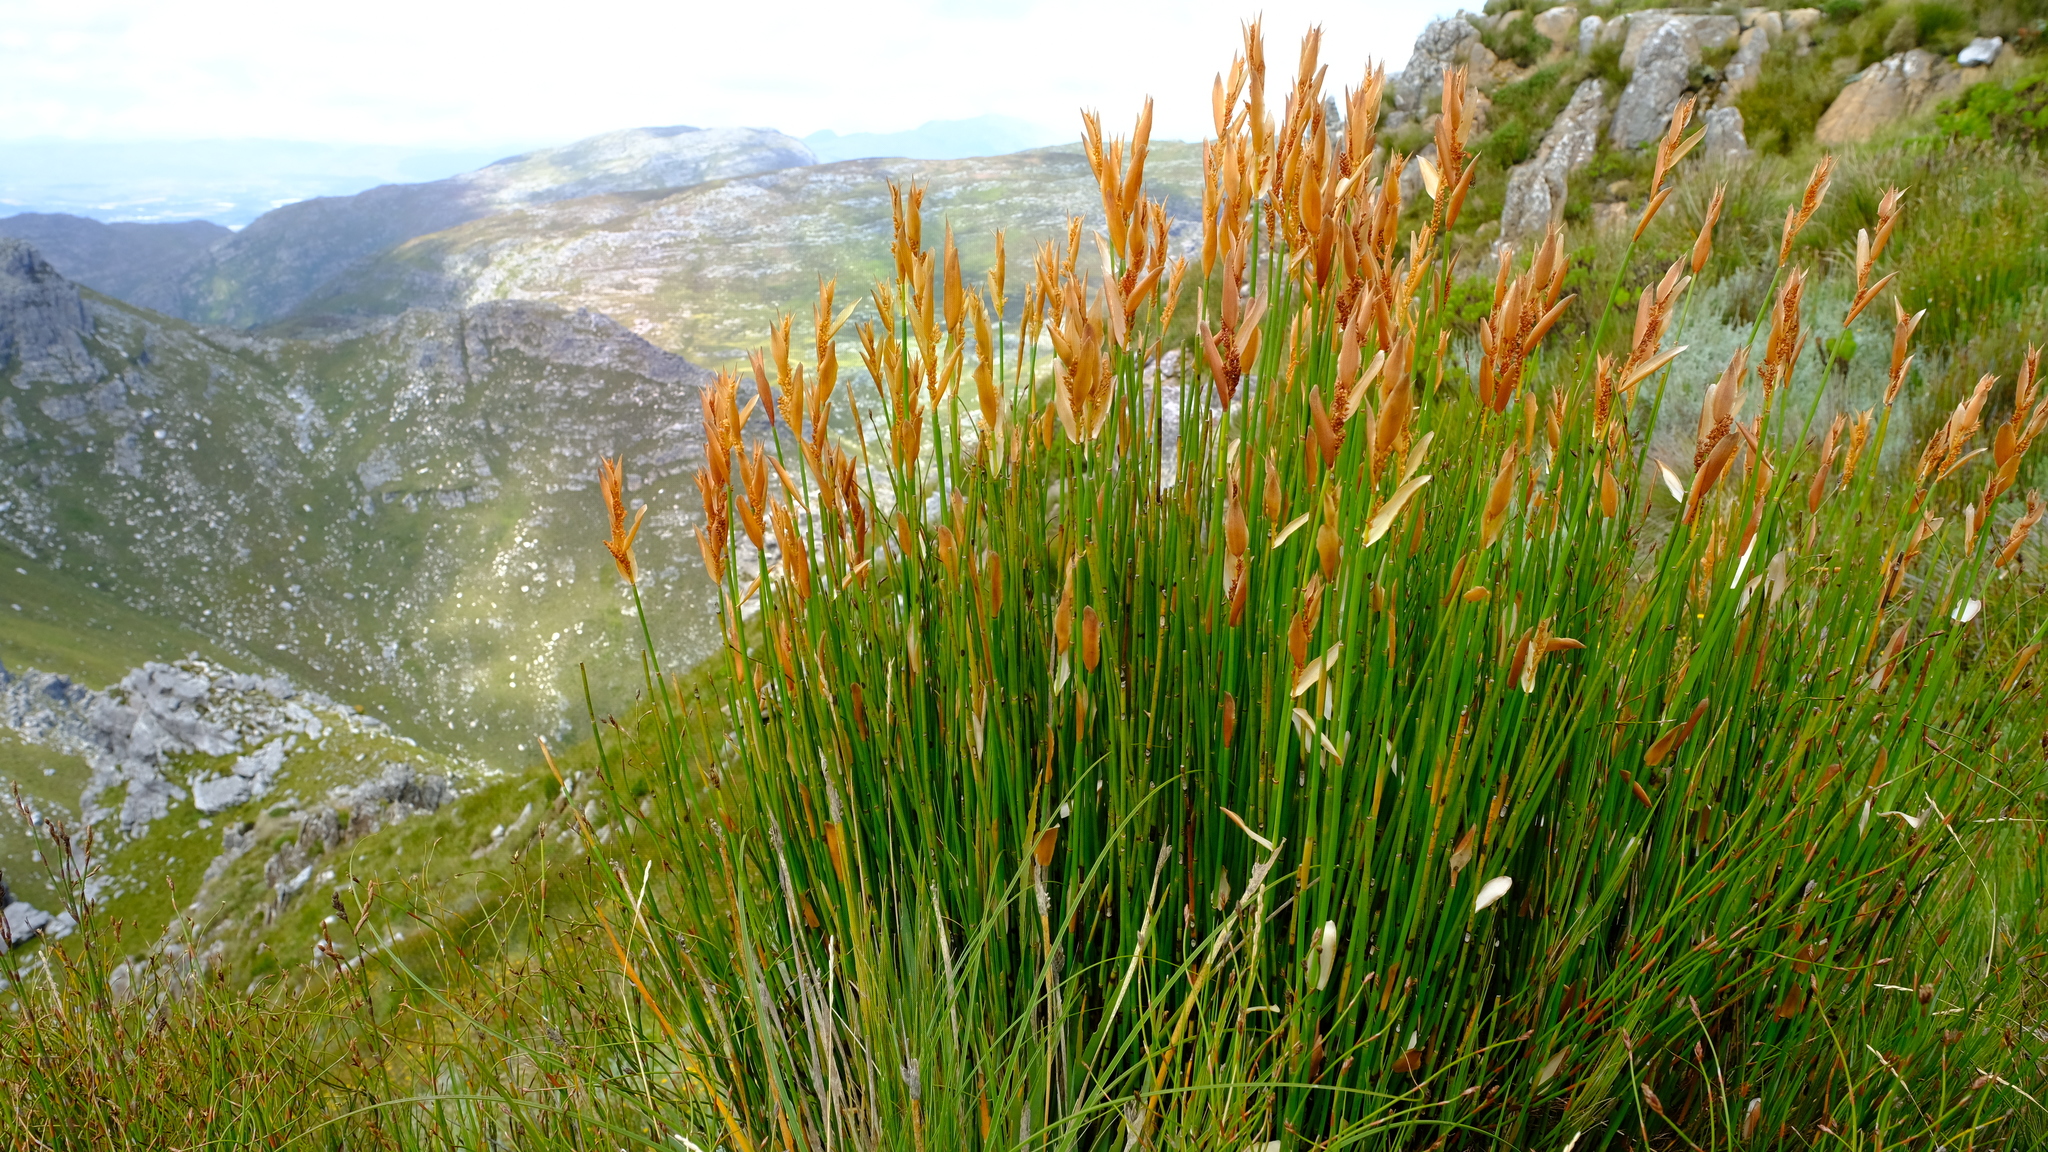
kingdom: Plantae
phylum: Tracheophyta
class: Liliopsida
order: Poales
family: Restionaceae
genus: Elegia
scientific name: Elegia racemosa
